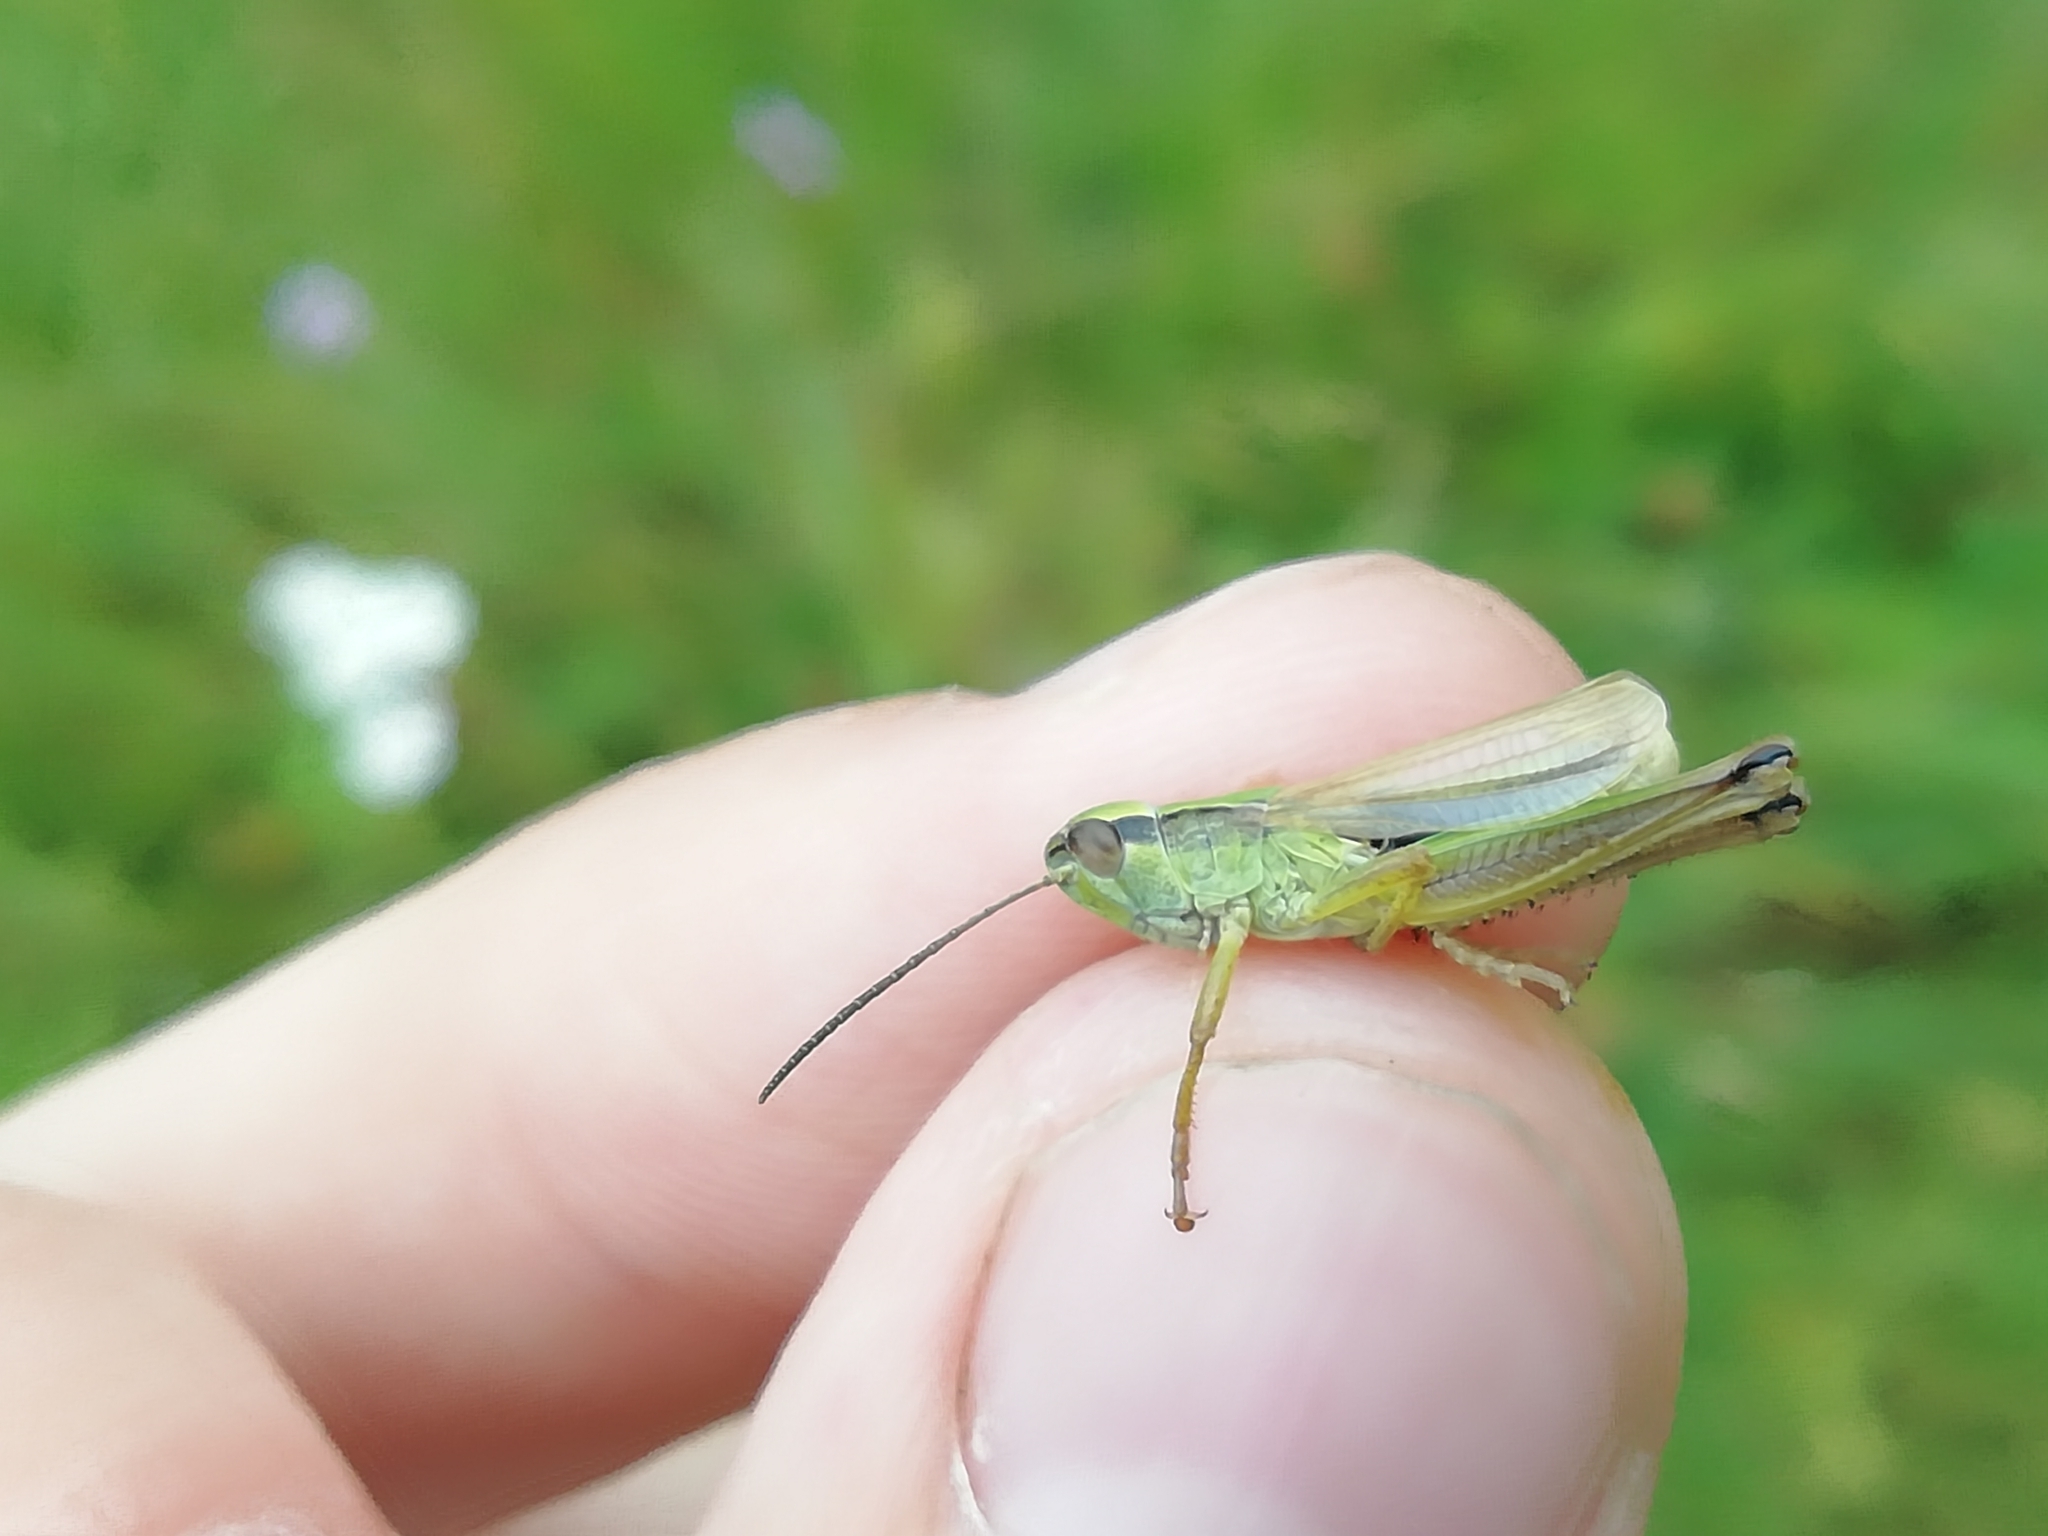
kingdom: Animalia
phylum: Arthropoda
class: Insecta
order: Orthoptera
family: Acrididae
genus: Chorthippus
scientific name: Chorthippus fallax
